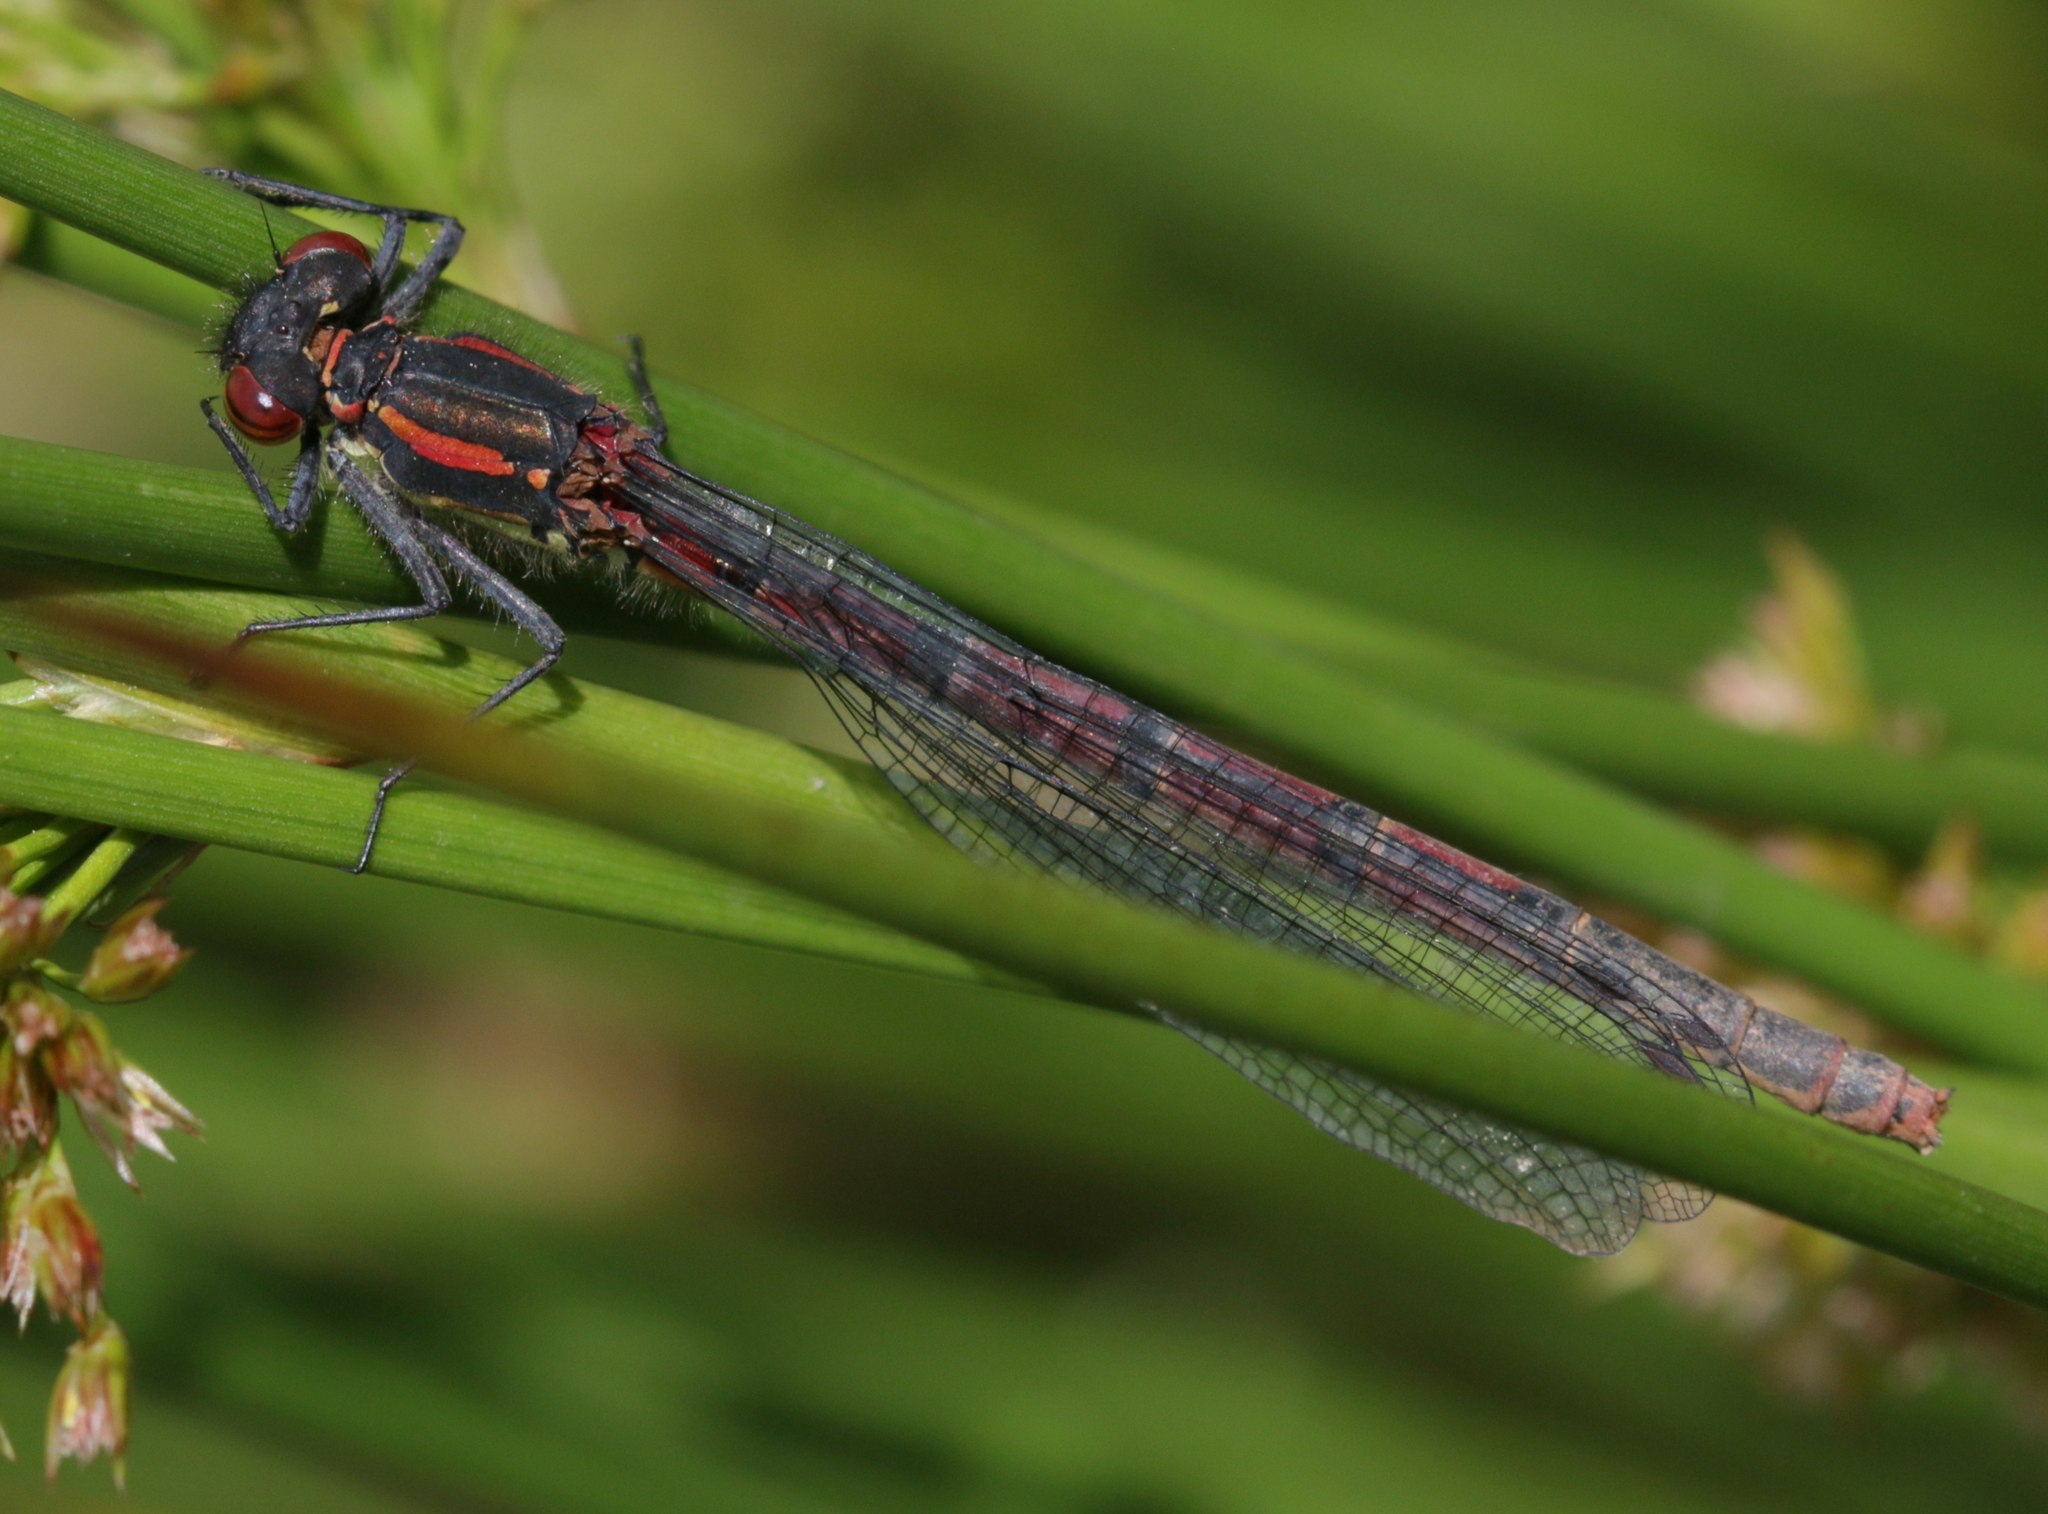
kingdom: Animalia
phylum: Arthropoda
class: Insecta
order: Odonata
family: Coenagrionidae
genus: Pyrrhosoma
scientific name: Pyrrhosoma nymphula
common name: Large red damsel
